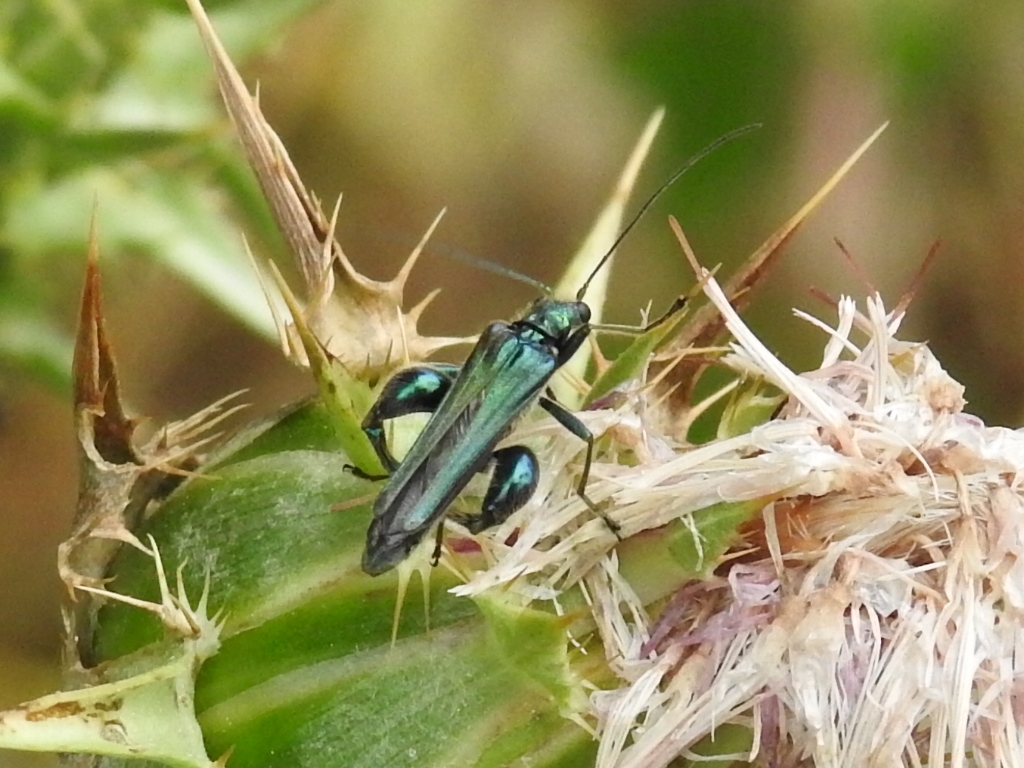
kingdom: Animalia
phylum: Arthropoda
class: Insecta
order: Coleoptera
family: Oedemeridae
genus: Oedemera
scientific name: Oedemera nobilis
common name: Swollen-thighed beetle
